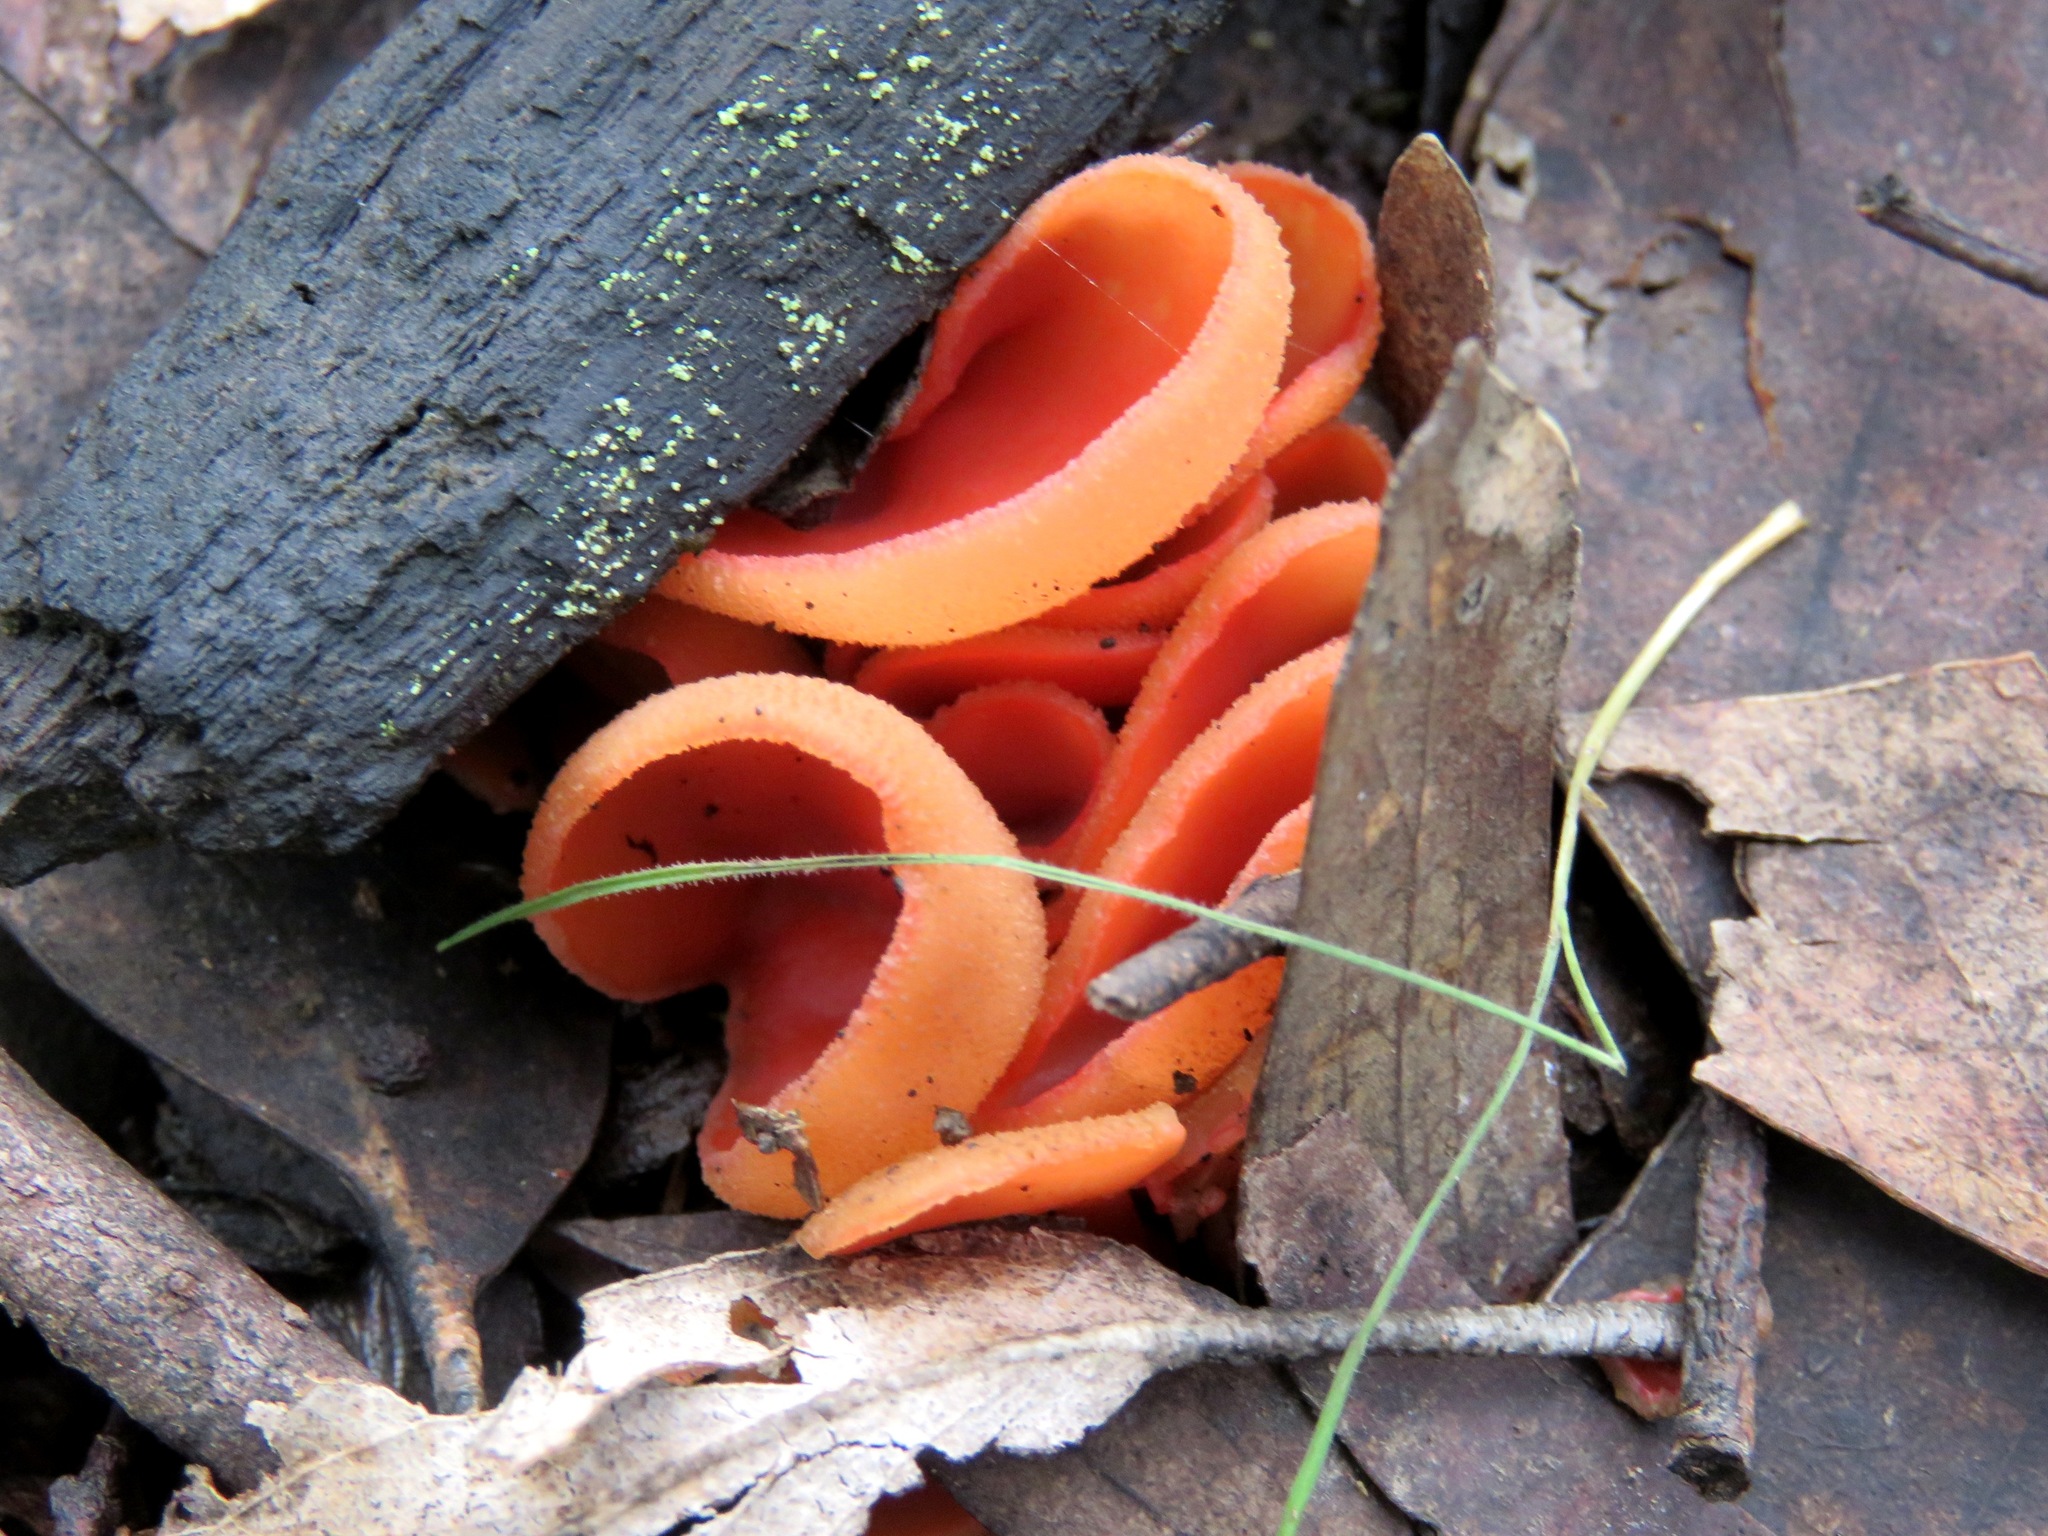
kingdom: Fungi
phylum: Ascomycota
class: Pezizomycetes
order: Pezizales
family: Pyronemataceae
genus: Aleuria
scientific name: Aleuria aurantia
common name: Orange peel fungus
